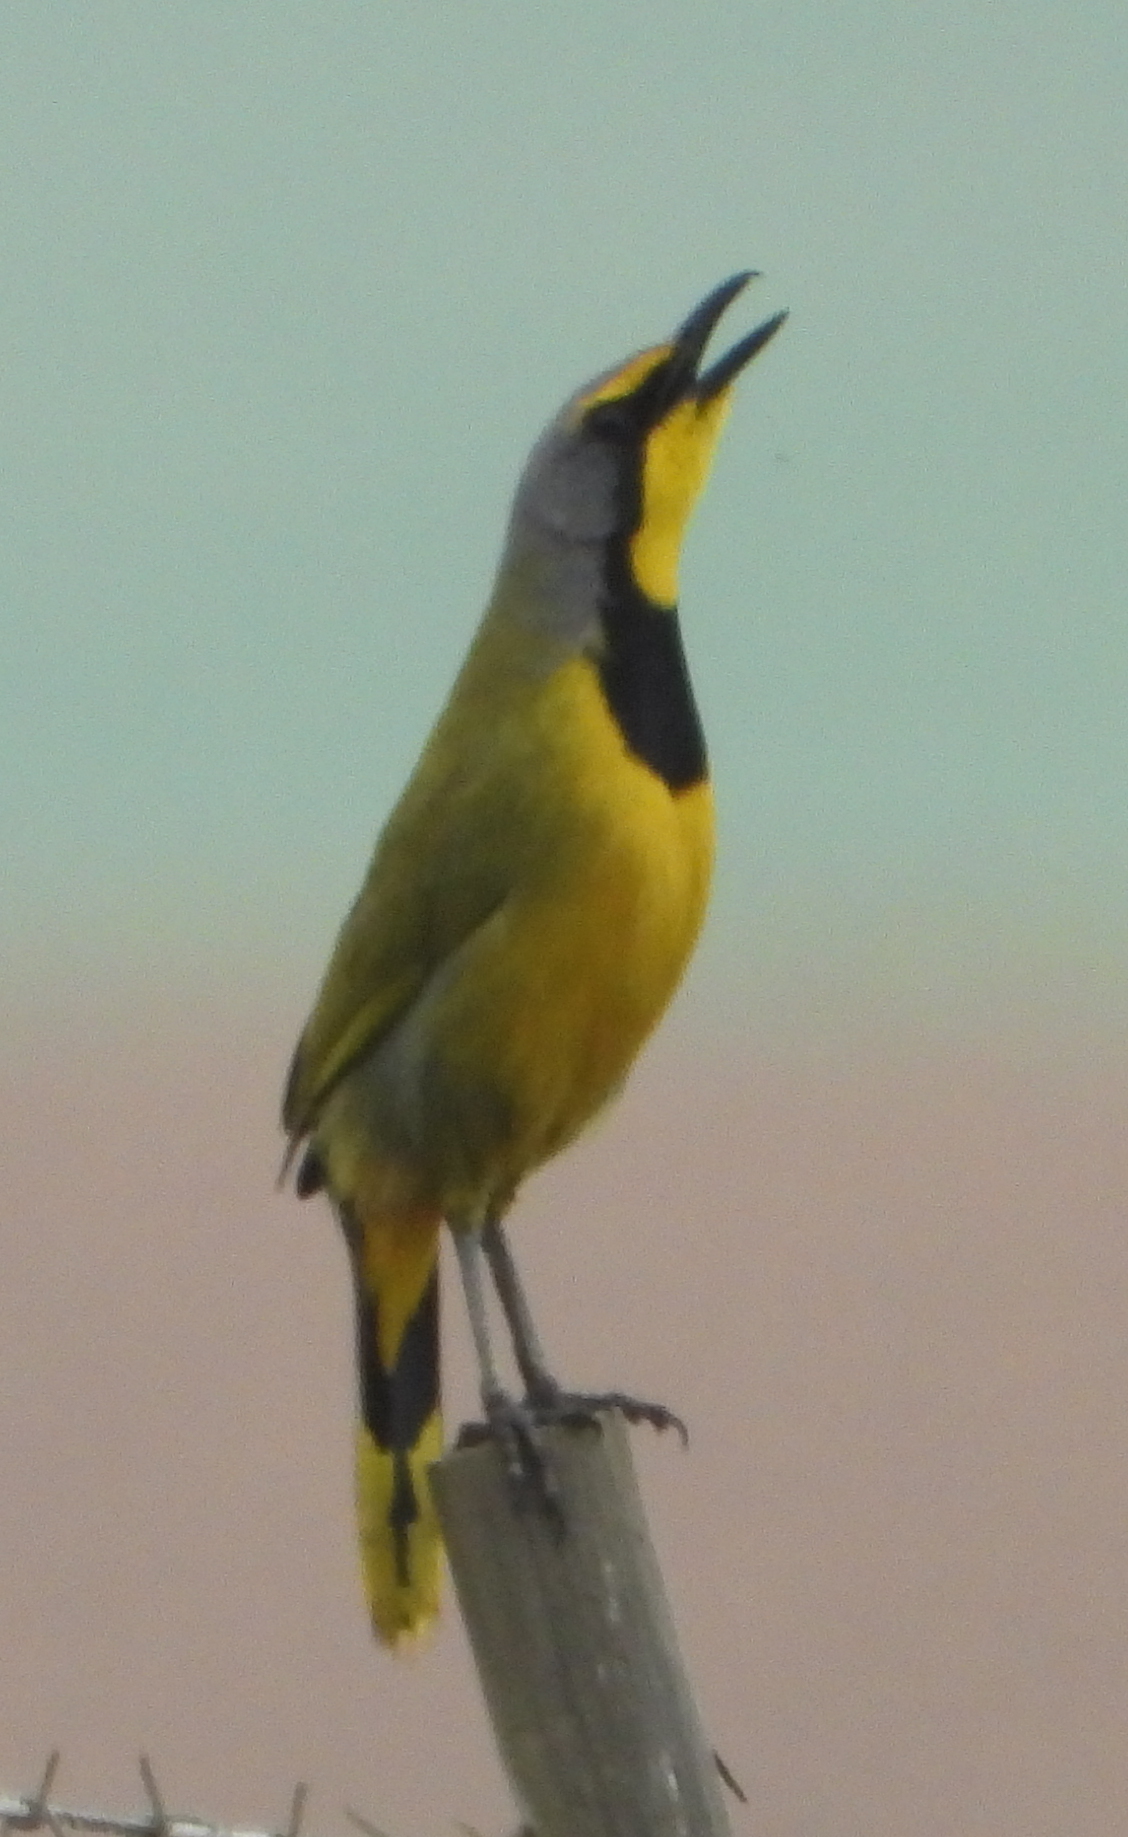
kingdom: Animalia
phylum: Chordata
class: Aves
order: Passeriformes
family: Malaconotidae
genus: Telophorus
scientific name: Telophorus zeylonus
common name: Bokmakierie
